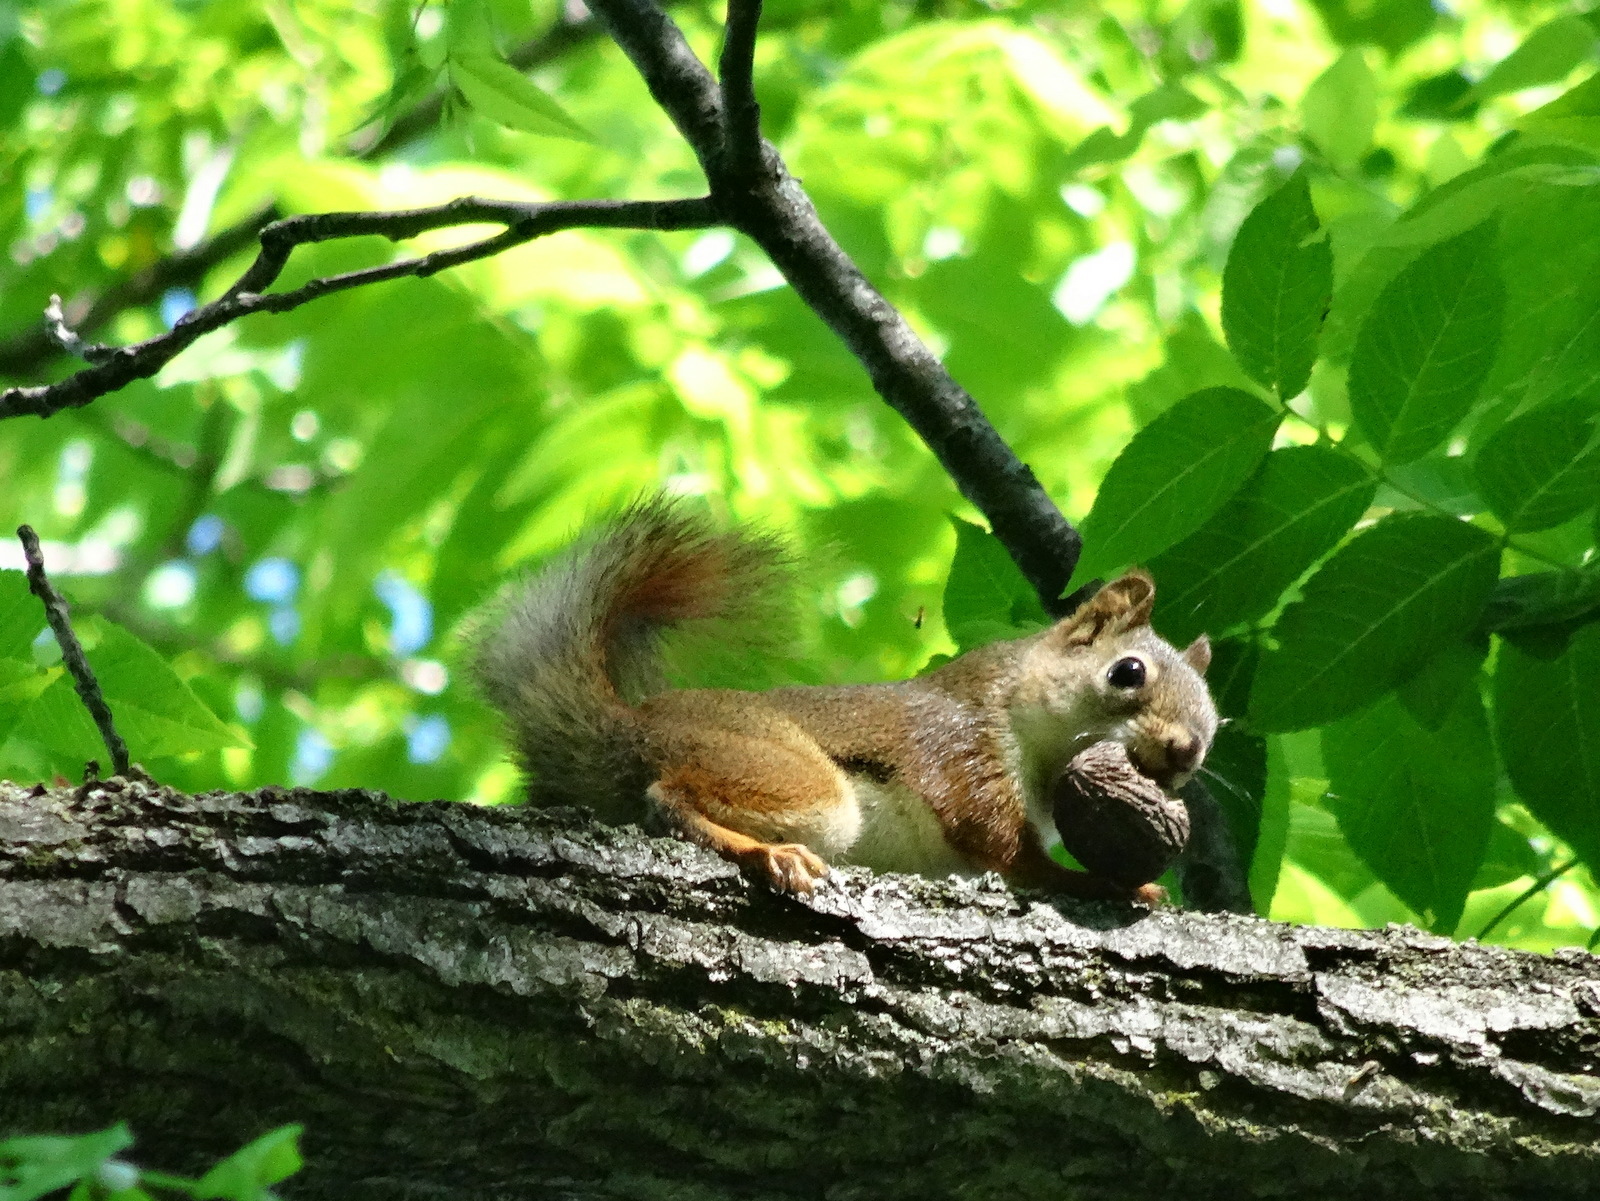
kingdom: Animalia
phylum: Chordata
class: Mammalia
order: Rodentia
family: Sciuridae
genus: Tamiasciurus
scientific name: Tamiasciurus hudsonicus
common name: Red squirrel
